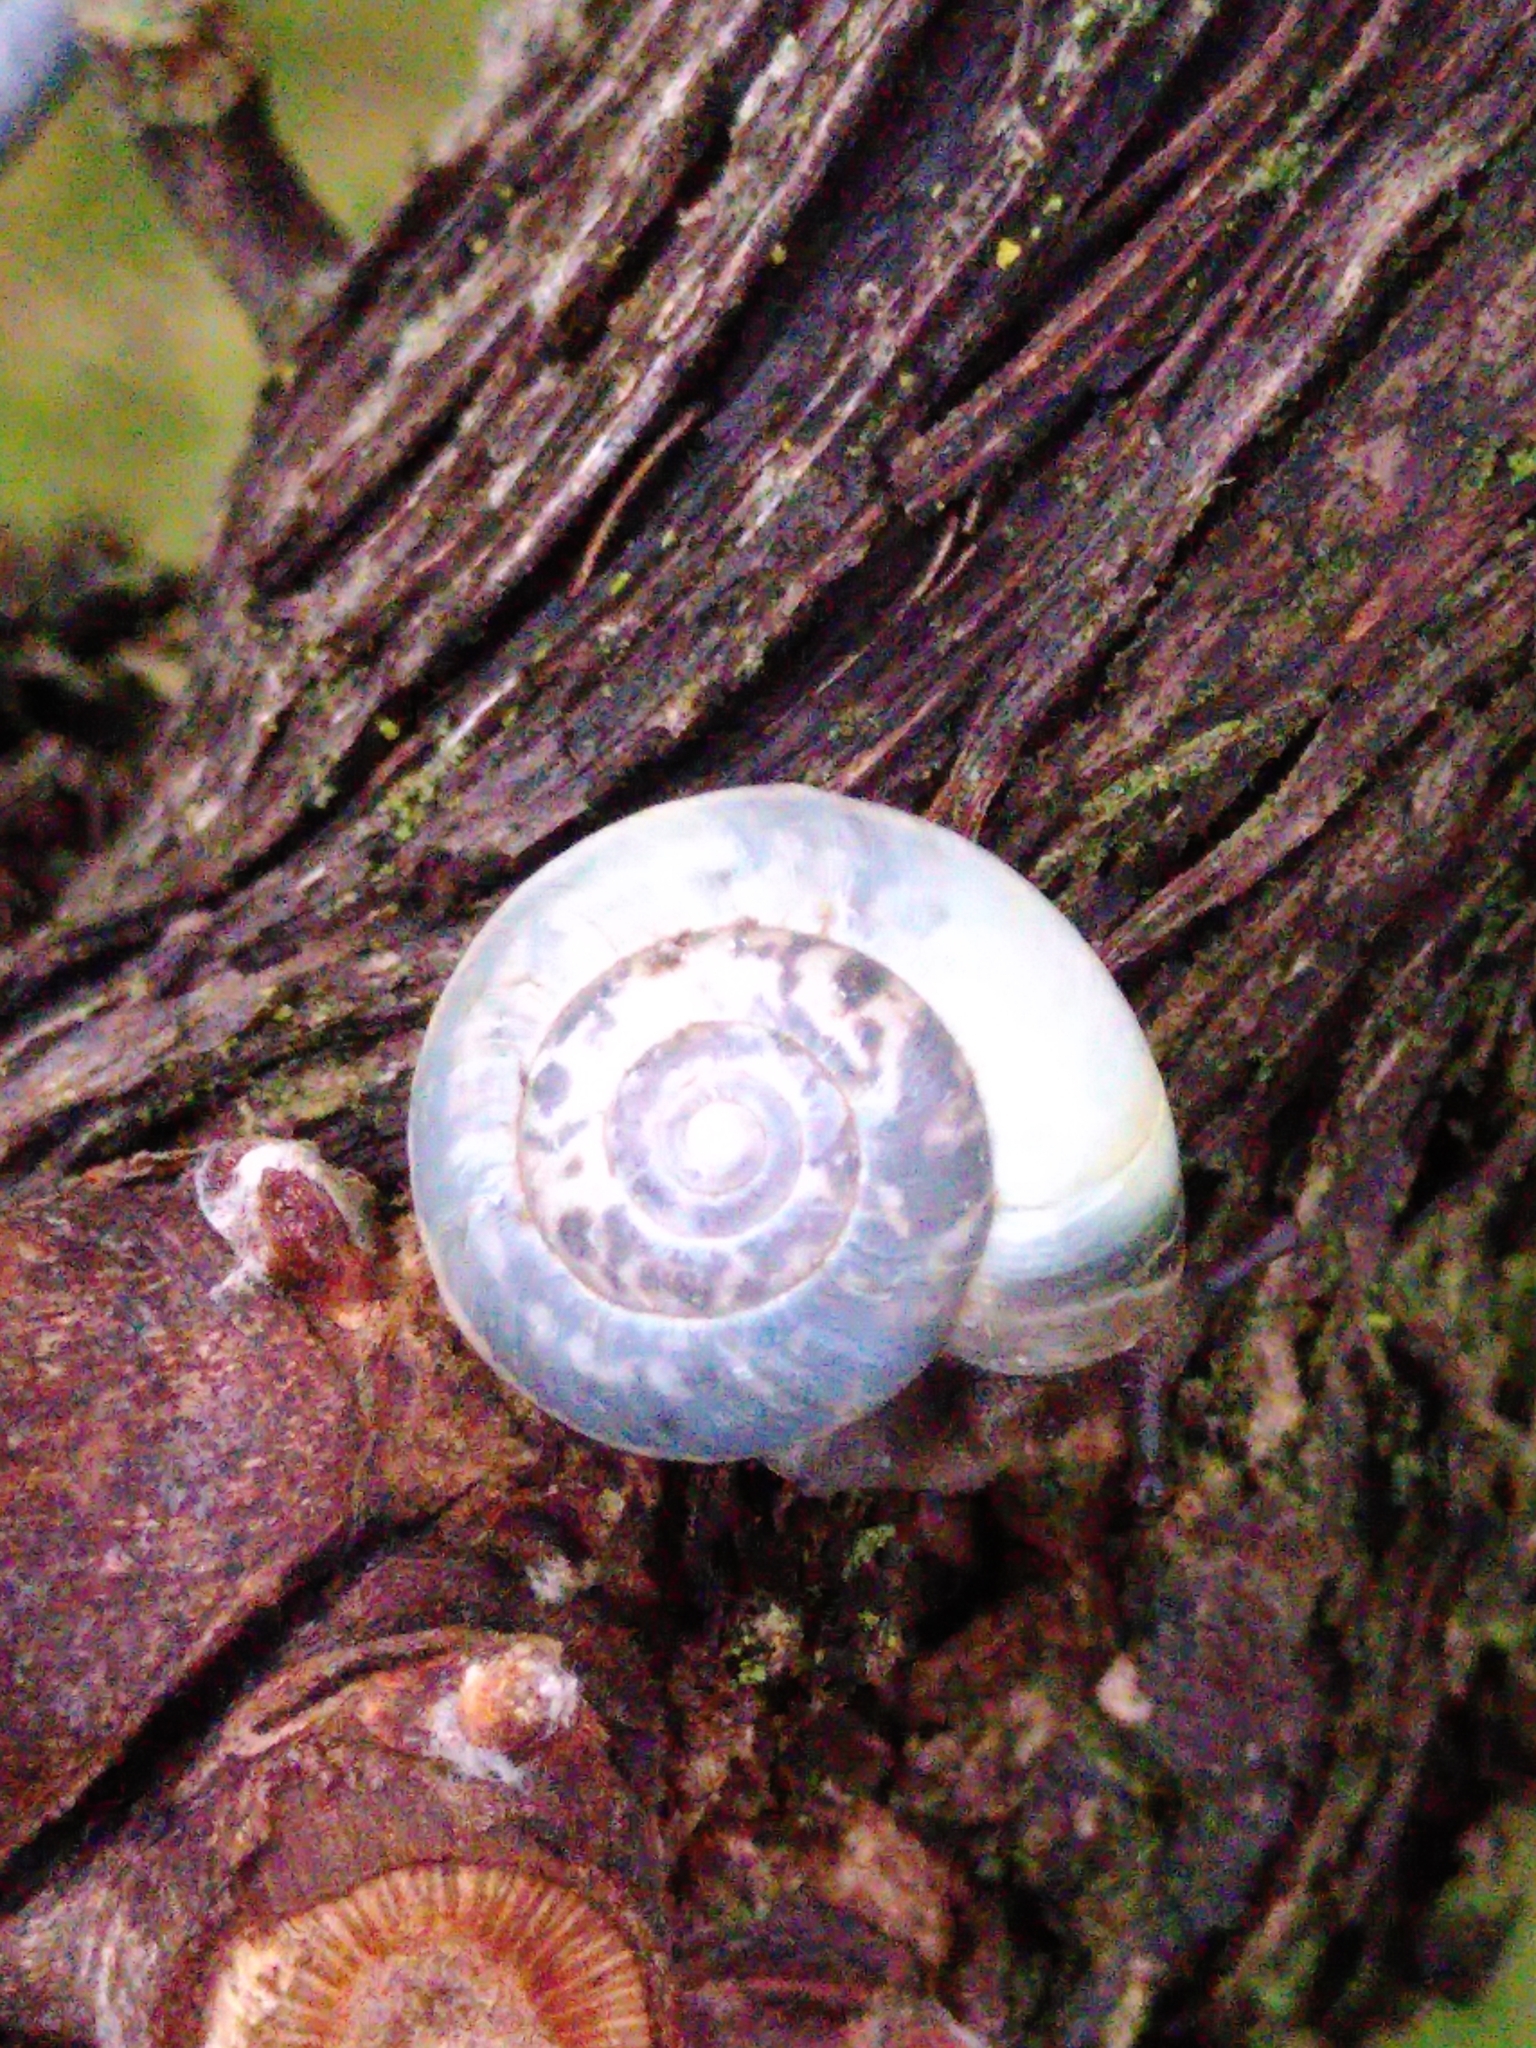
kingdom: Animalia
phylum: Mollusca
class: Gastropoda
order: Stylommatophora
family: Hygromiidae
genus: Monacha
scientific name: Monacha cantiana
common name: Kentish snail
